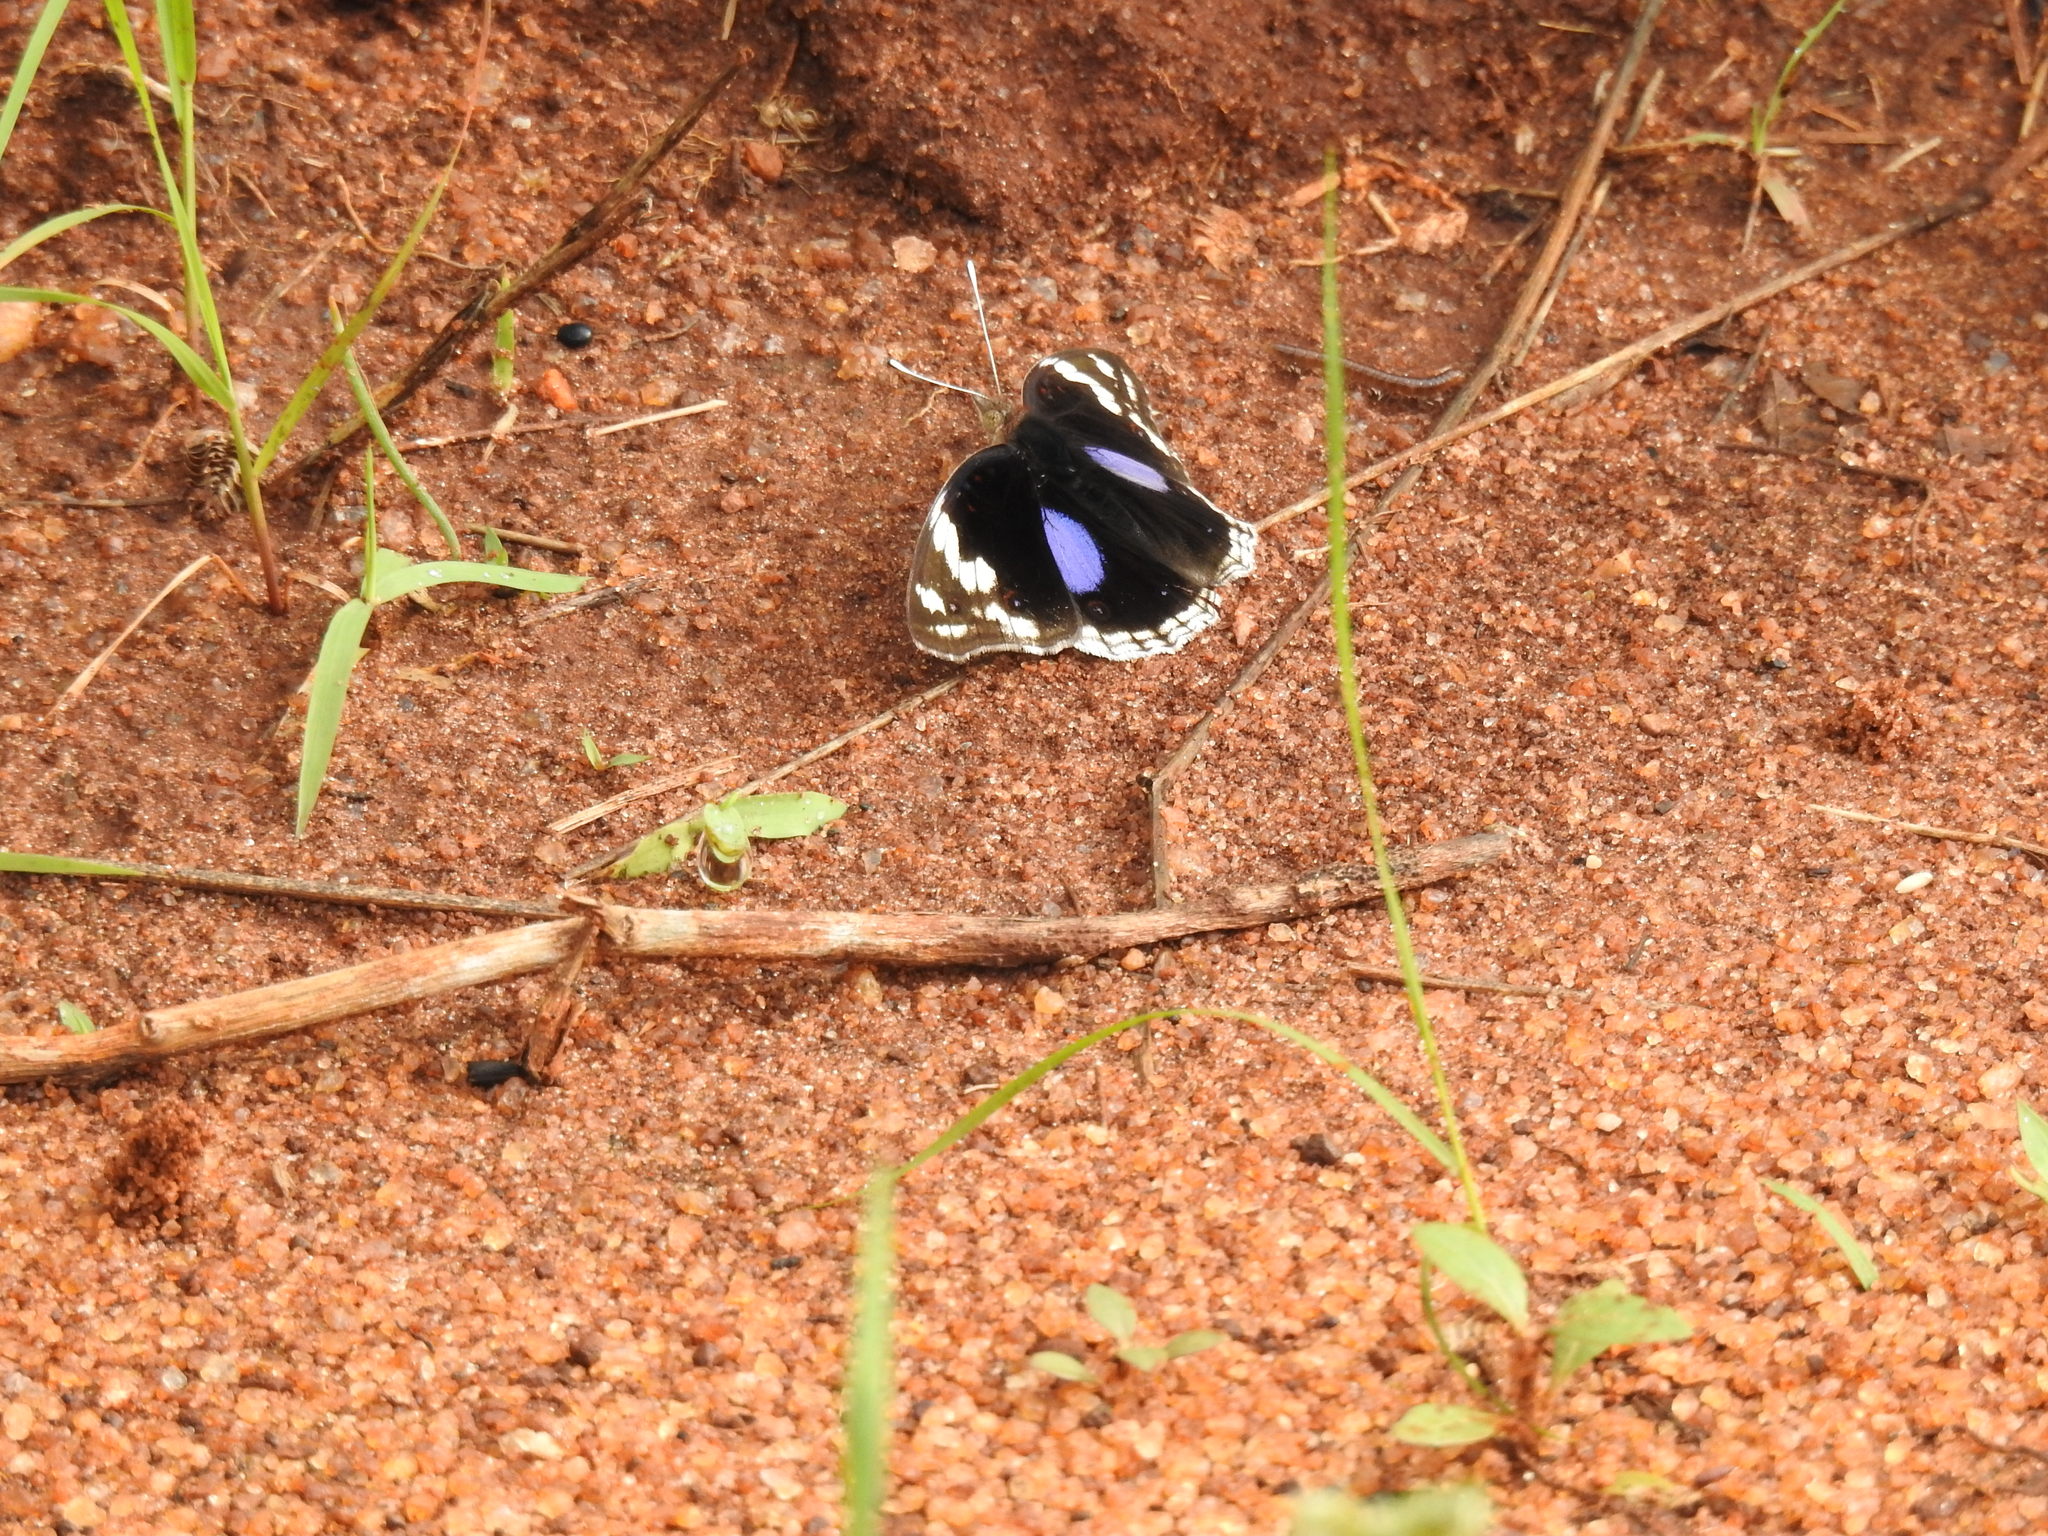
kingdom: Animalia
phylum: Arthropoda
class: Insecta
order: Lepidoptera
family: Nymphalidae
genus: Junonia
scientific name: Junonia oenone
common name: Dark blue pansy
